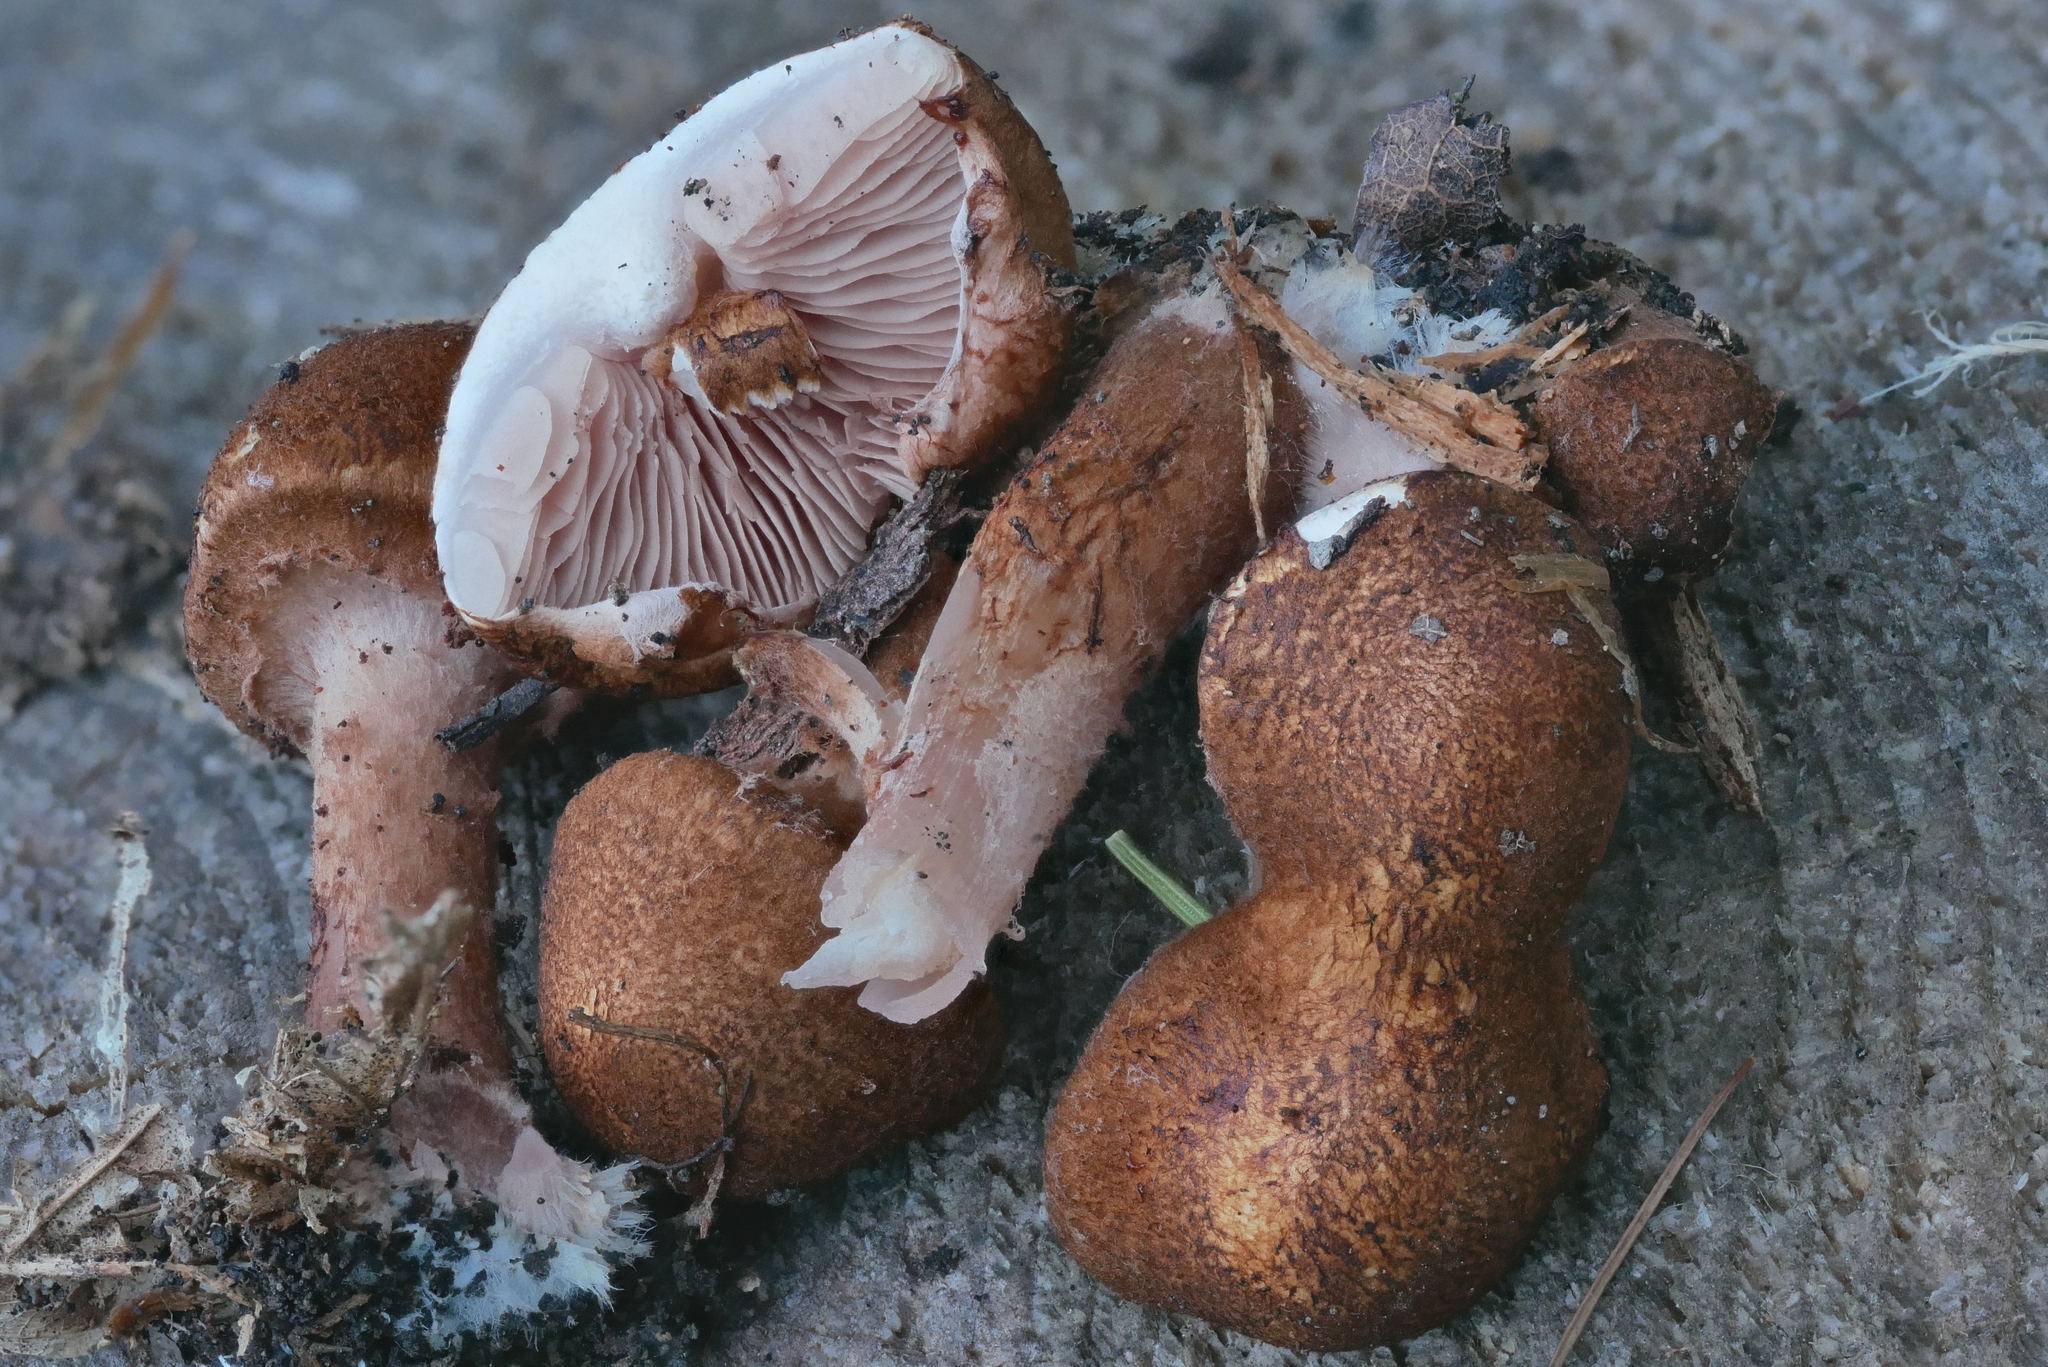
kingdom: Fungi
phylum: Basidiomycota
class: Agaricomycetes
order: Agaricales
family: Agaricaceae
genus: Lepiota
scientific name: Lepiota boudieri
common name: Girdled dapperling
